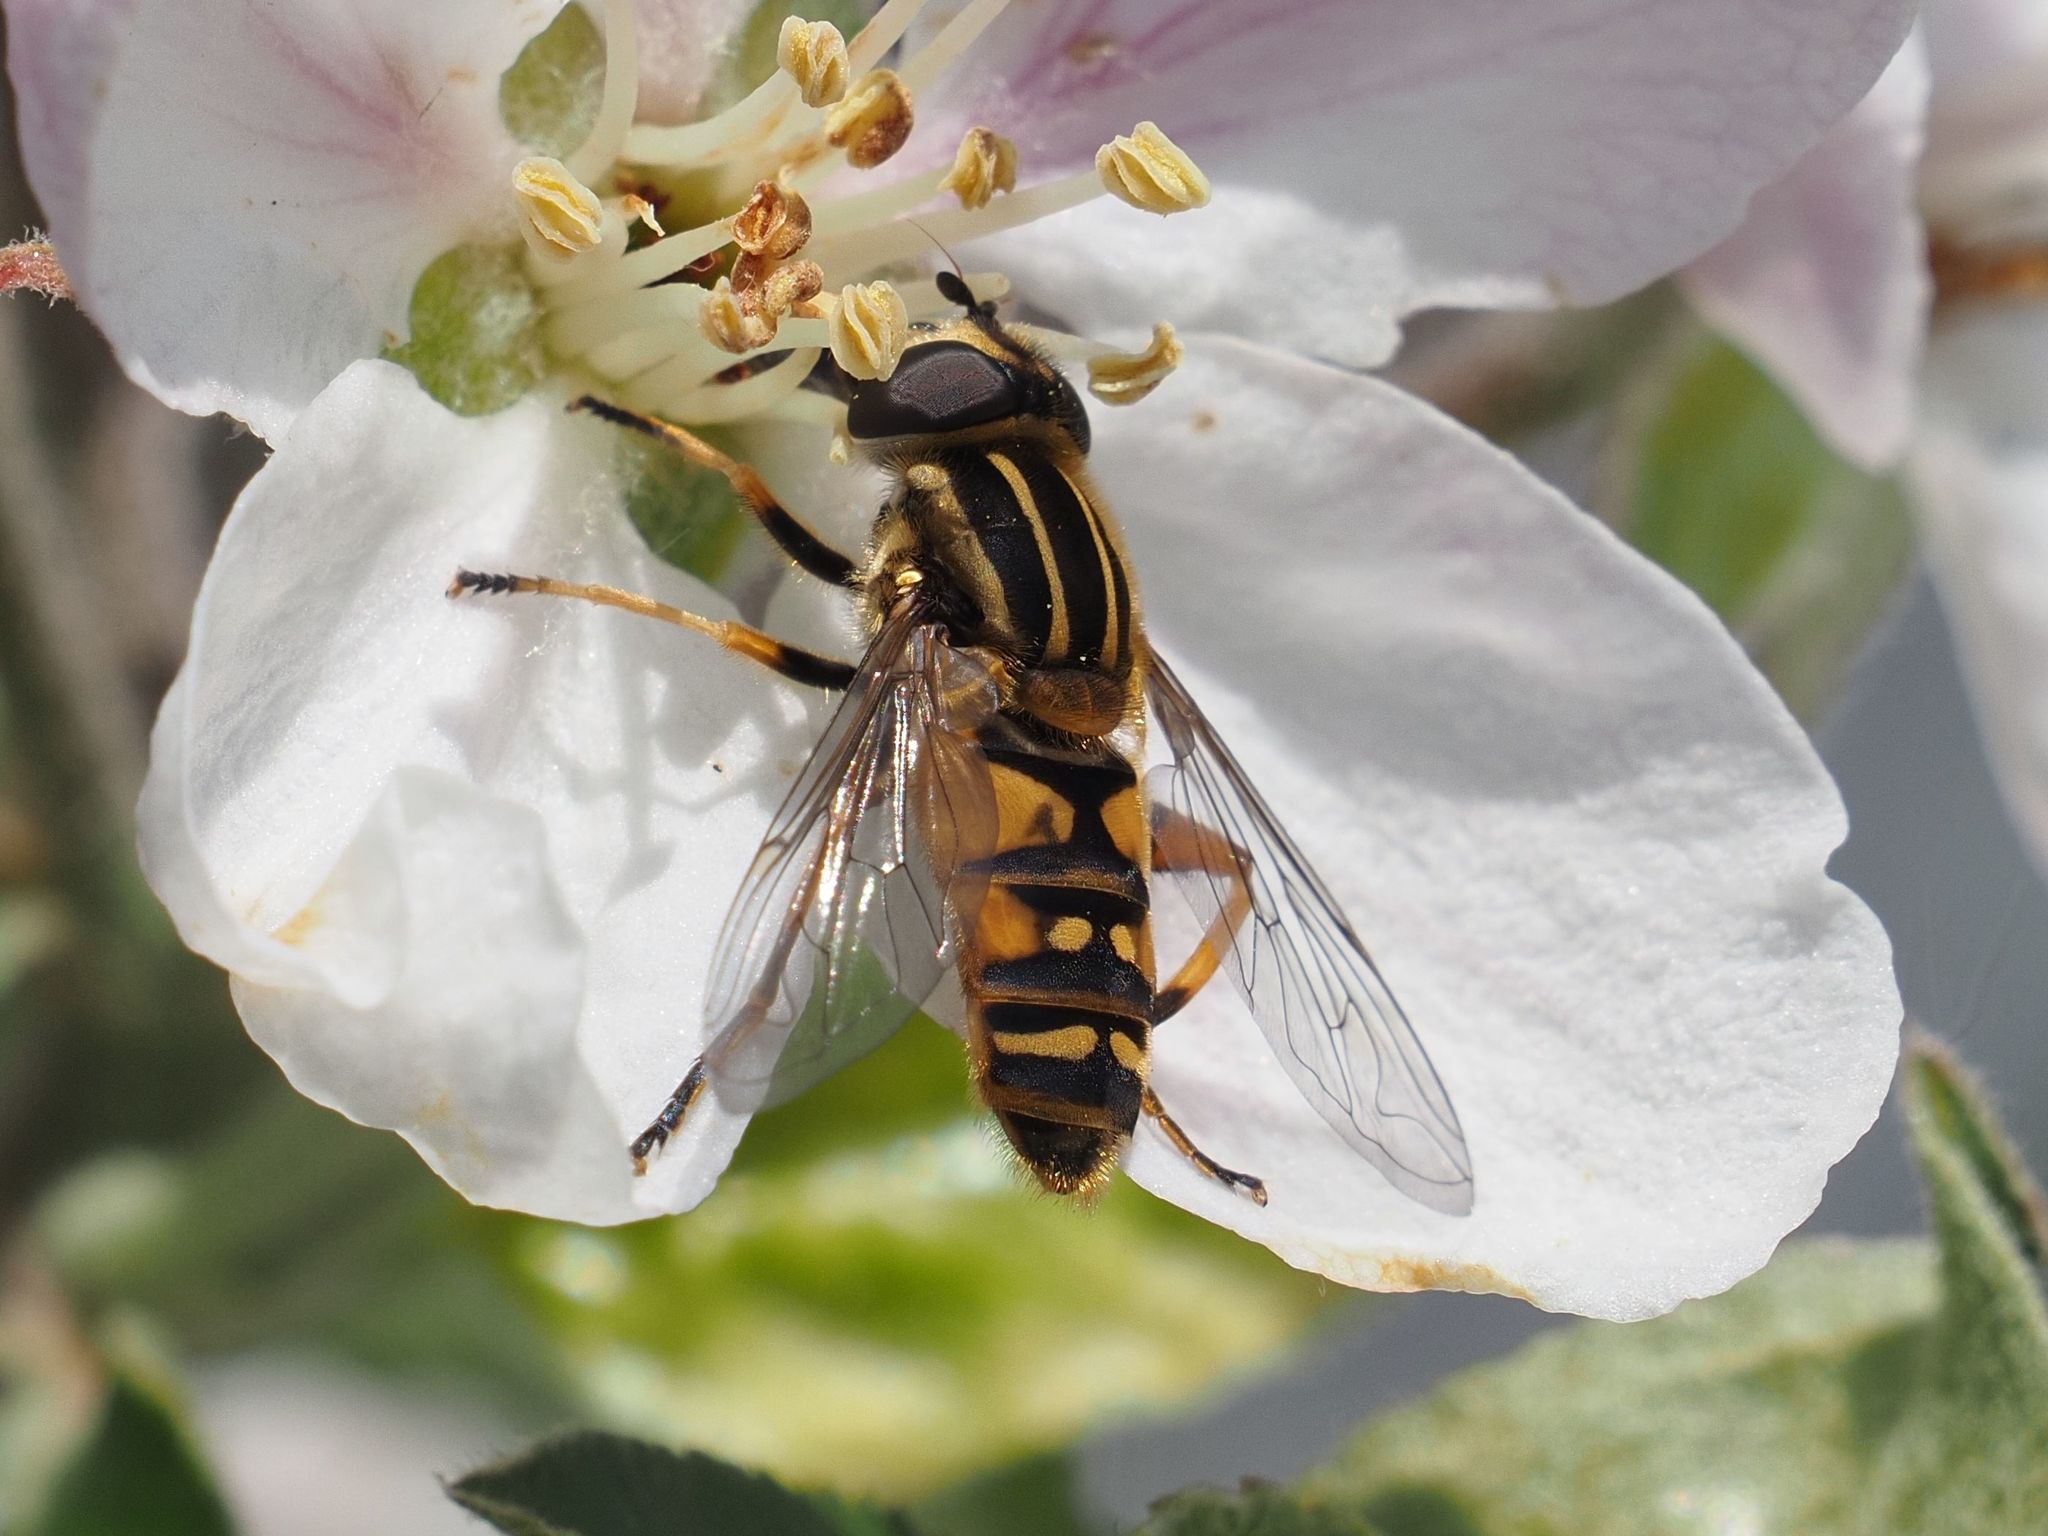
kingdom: Animalia
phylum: Arthropoda
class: Insecta
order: Diptera
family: Syrphidae
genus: Helophilus
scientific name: Helophilus pendulus
